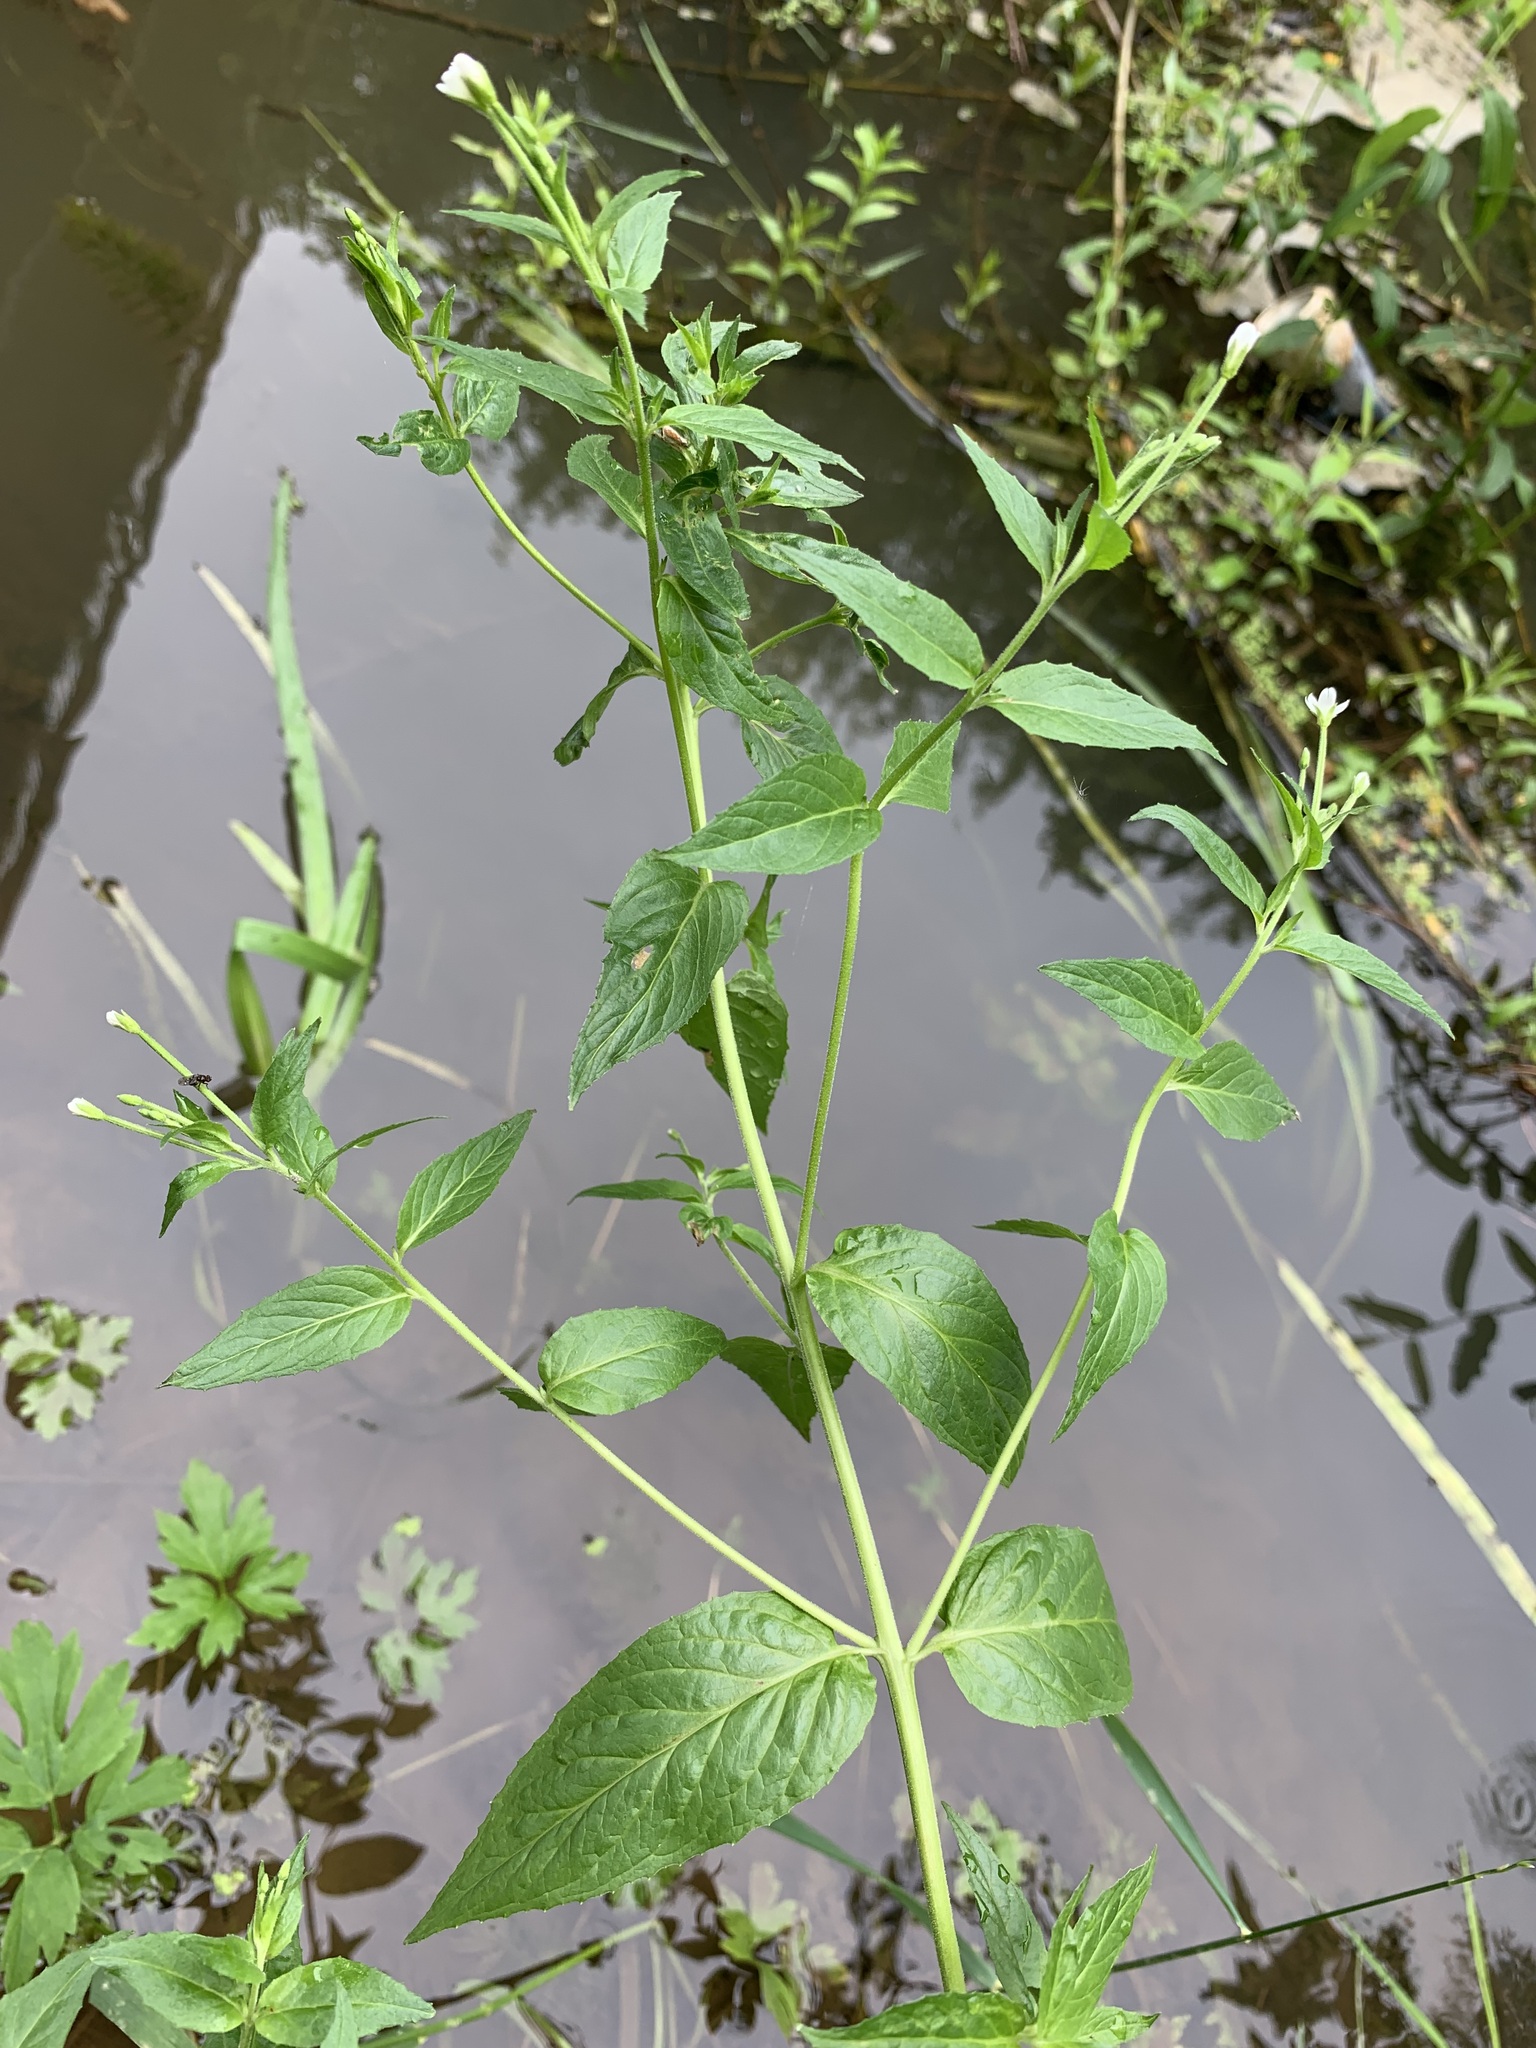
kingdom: Plantae
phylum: Tracheophyta
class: Magnoliopsida
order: Myrtales
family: Onagraceae
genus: Epilobium
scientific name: Epilobium pseudorubescens
